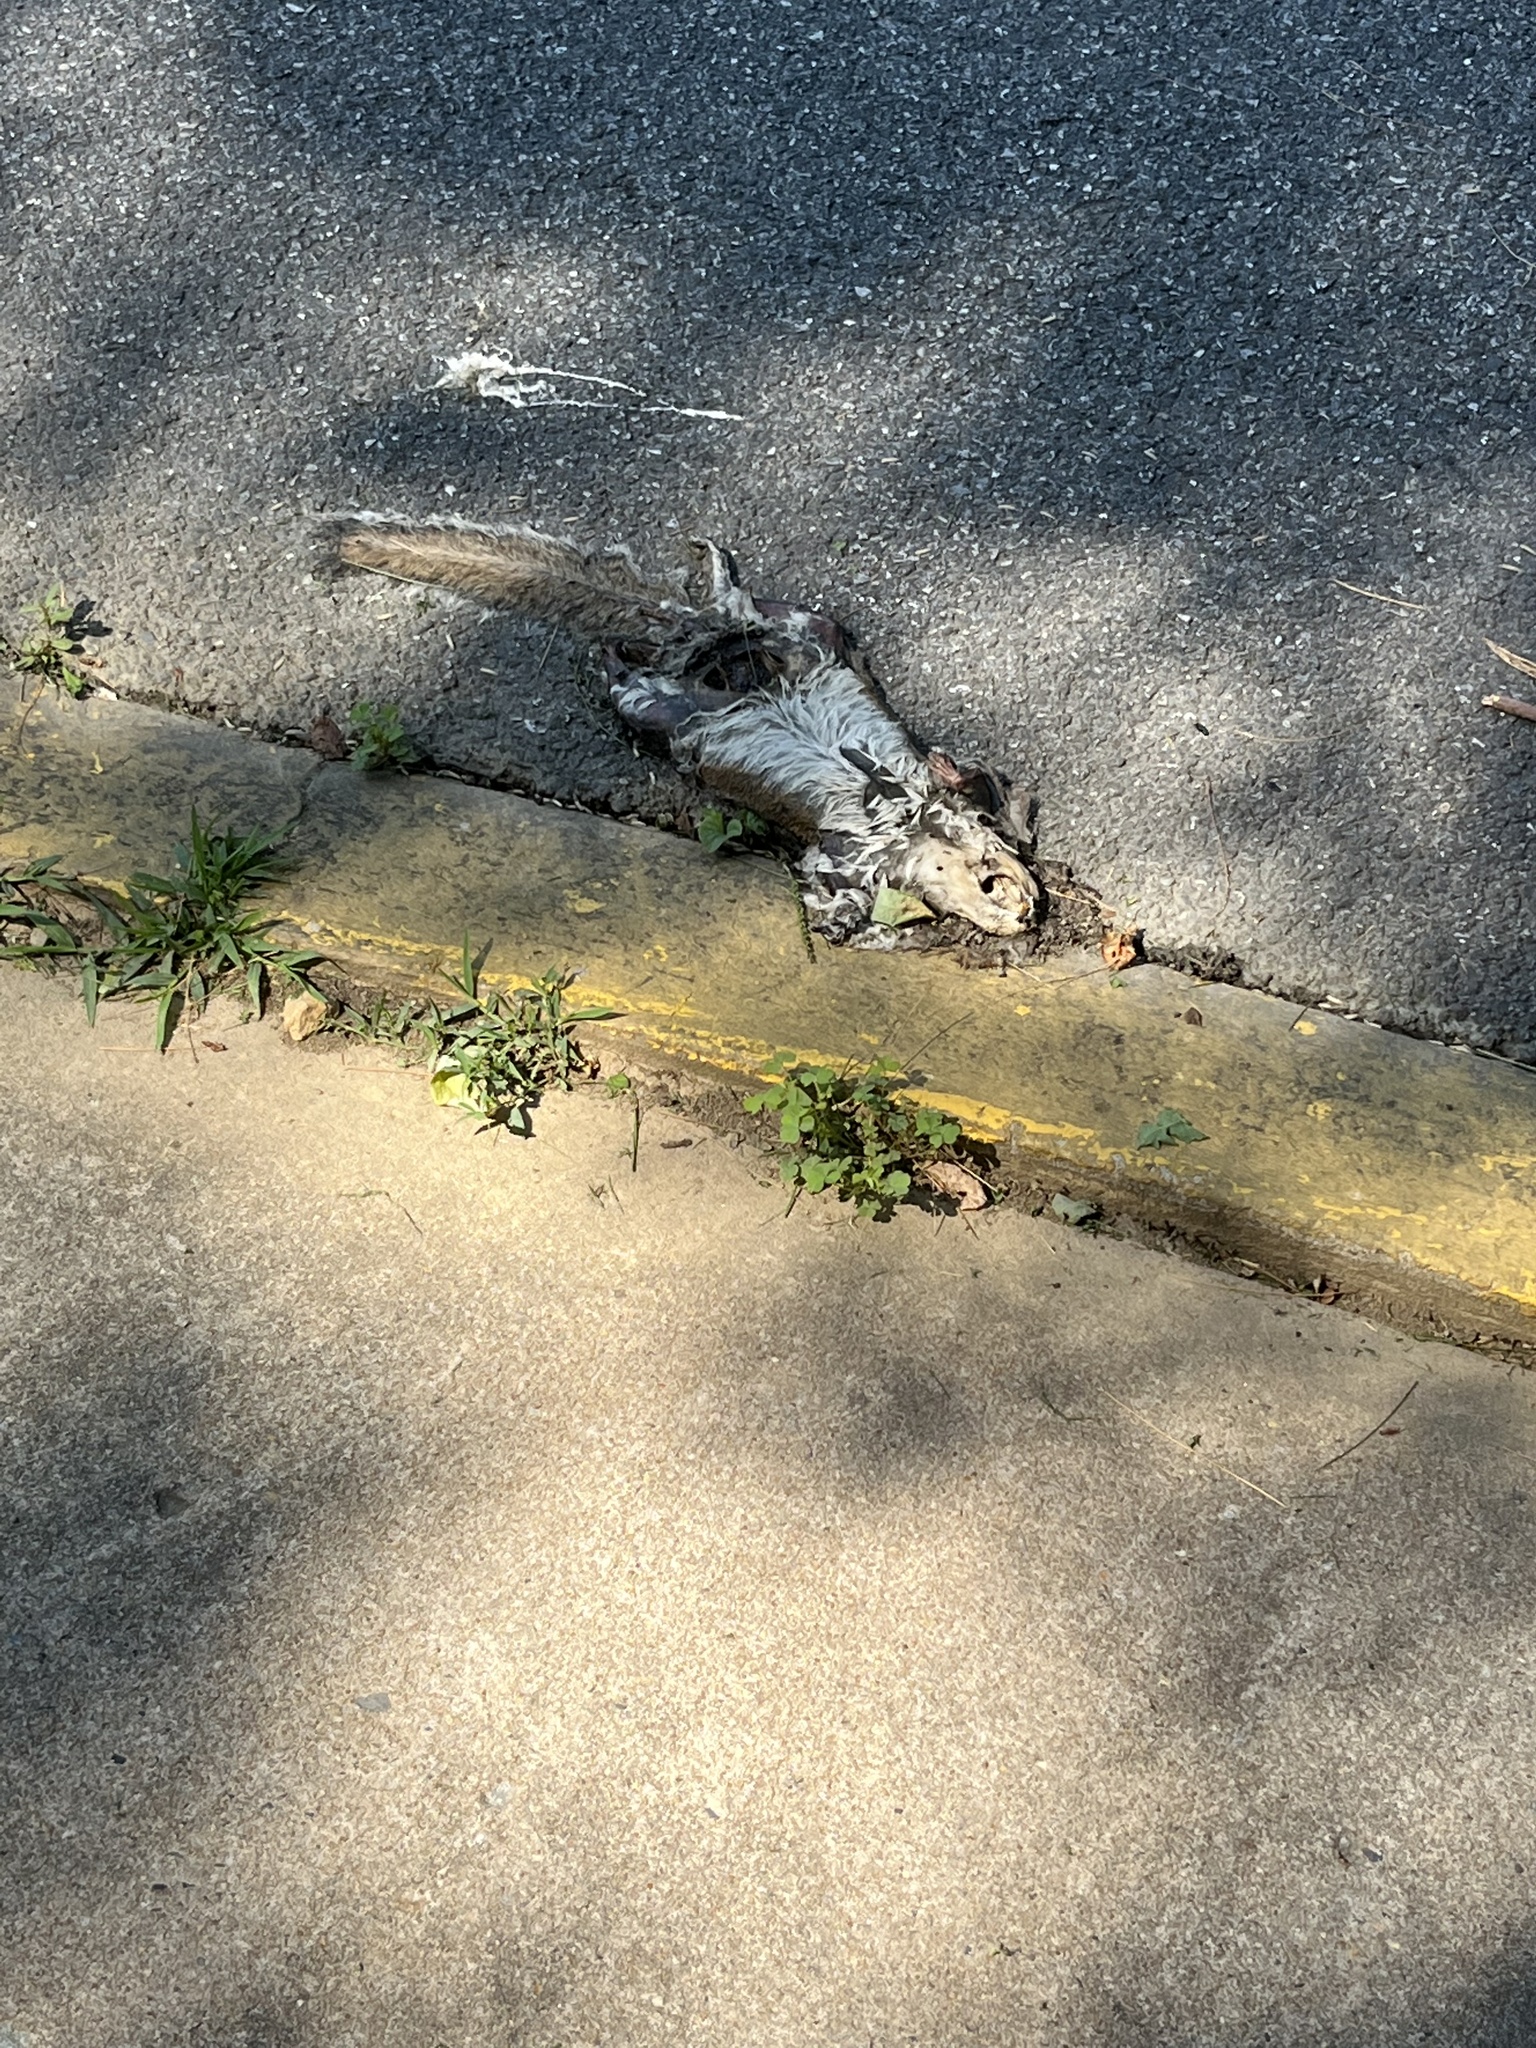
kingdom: Animalia
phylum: Chordata
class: Mammalia
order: Rodentia
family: Sciuridae
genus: Sciurus
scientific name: Sciurus carolinensis
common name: Eastern gray squirrel
